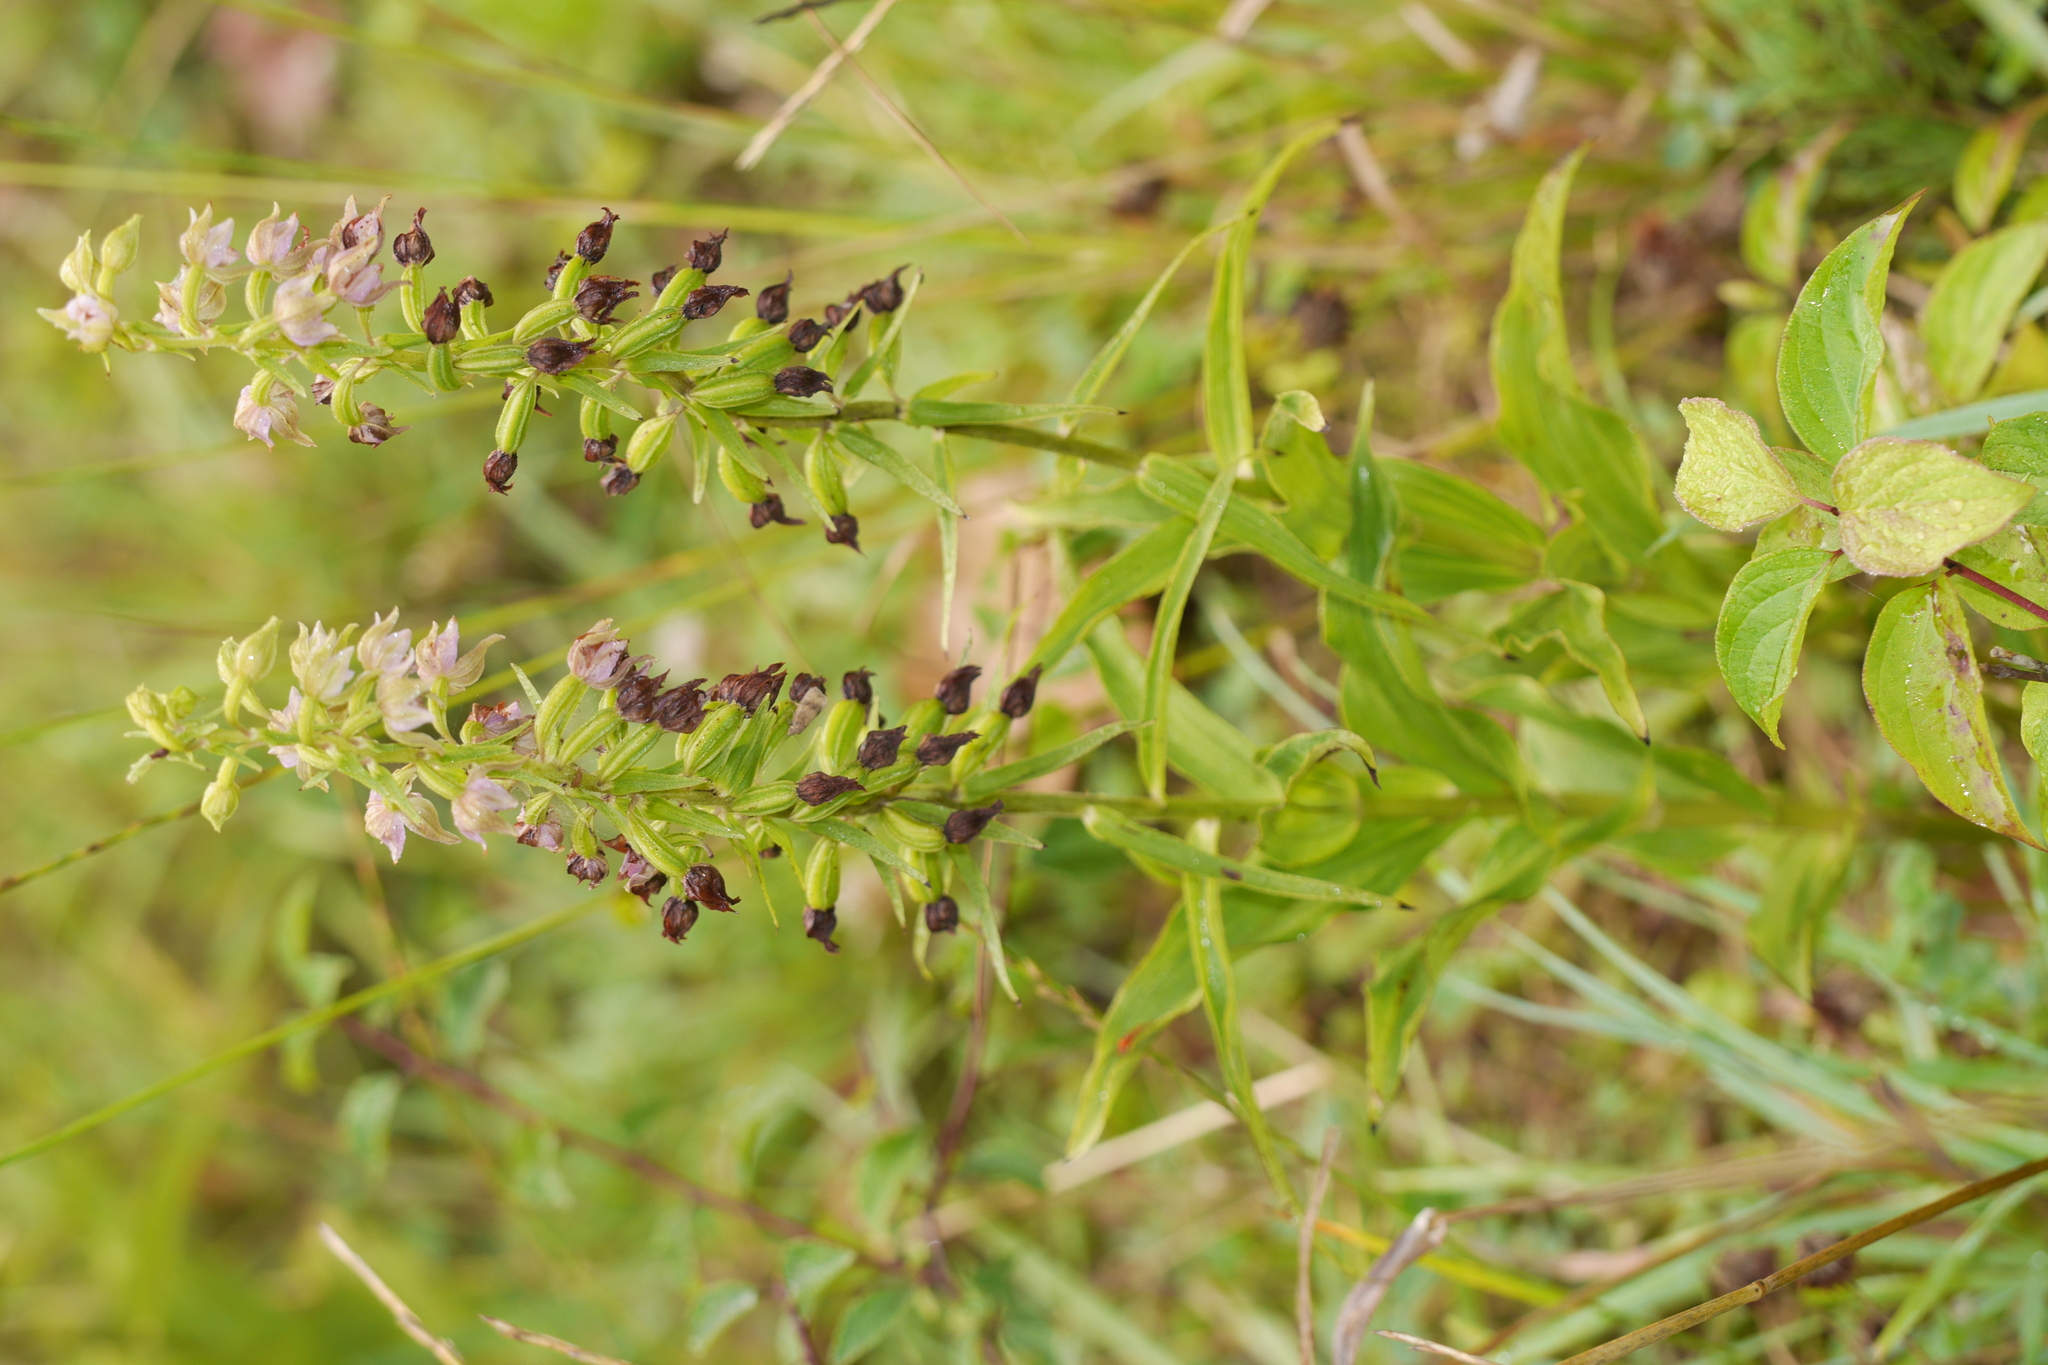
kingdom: Plantae
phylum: Tracheophyta
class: Liliopsida
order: Asparagales
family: Orchidaceae
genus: Epipactis
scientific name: Epipactis helleborine
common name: Broad-leaved helleborine
